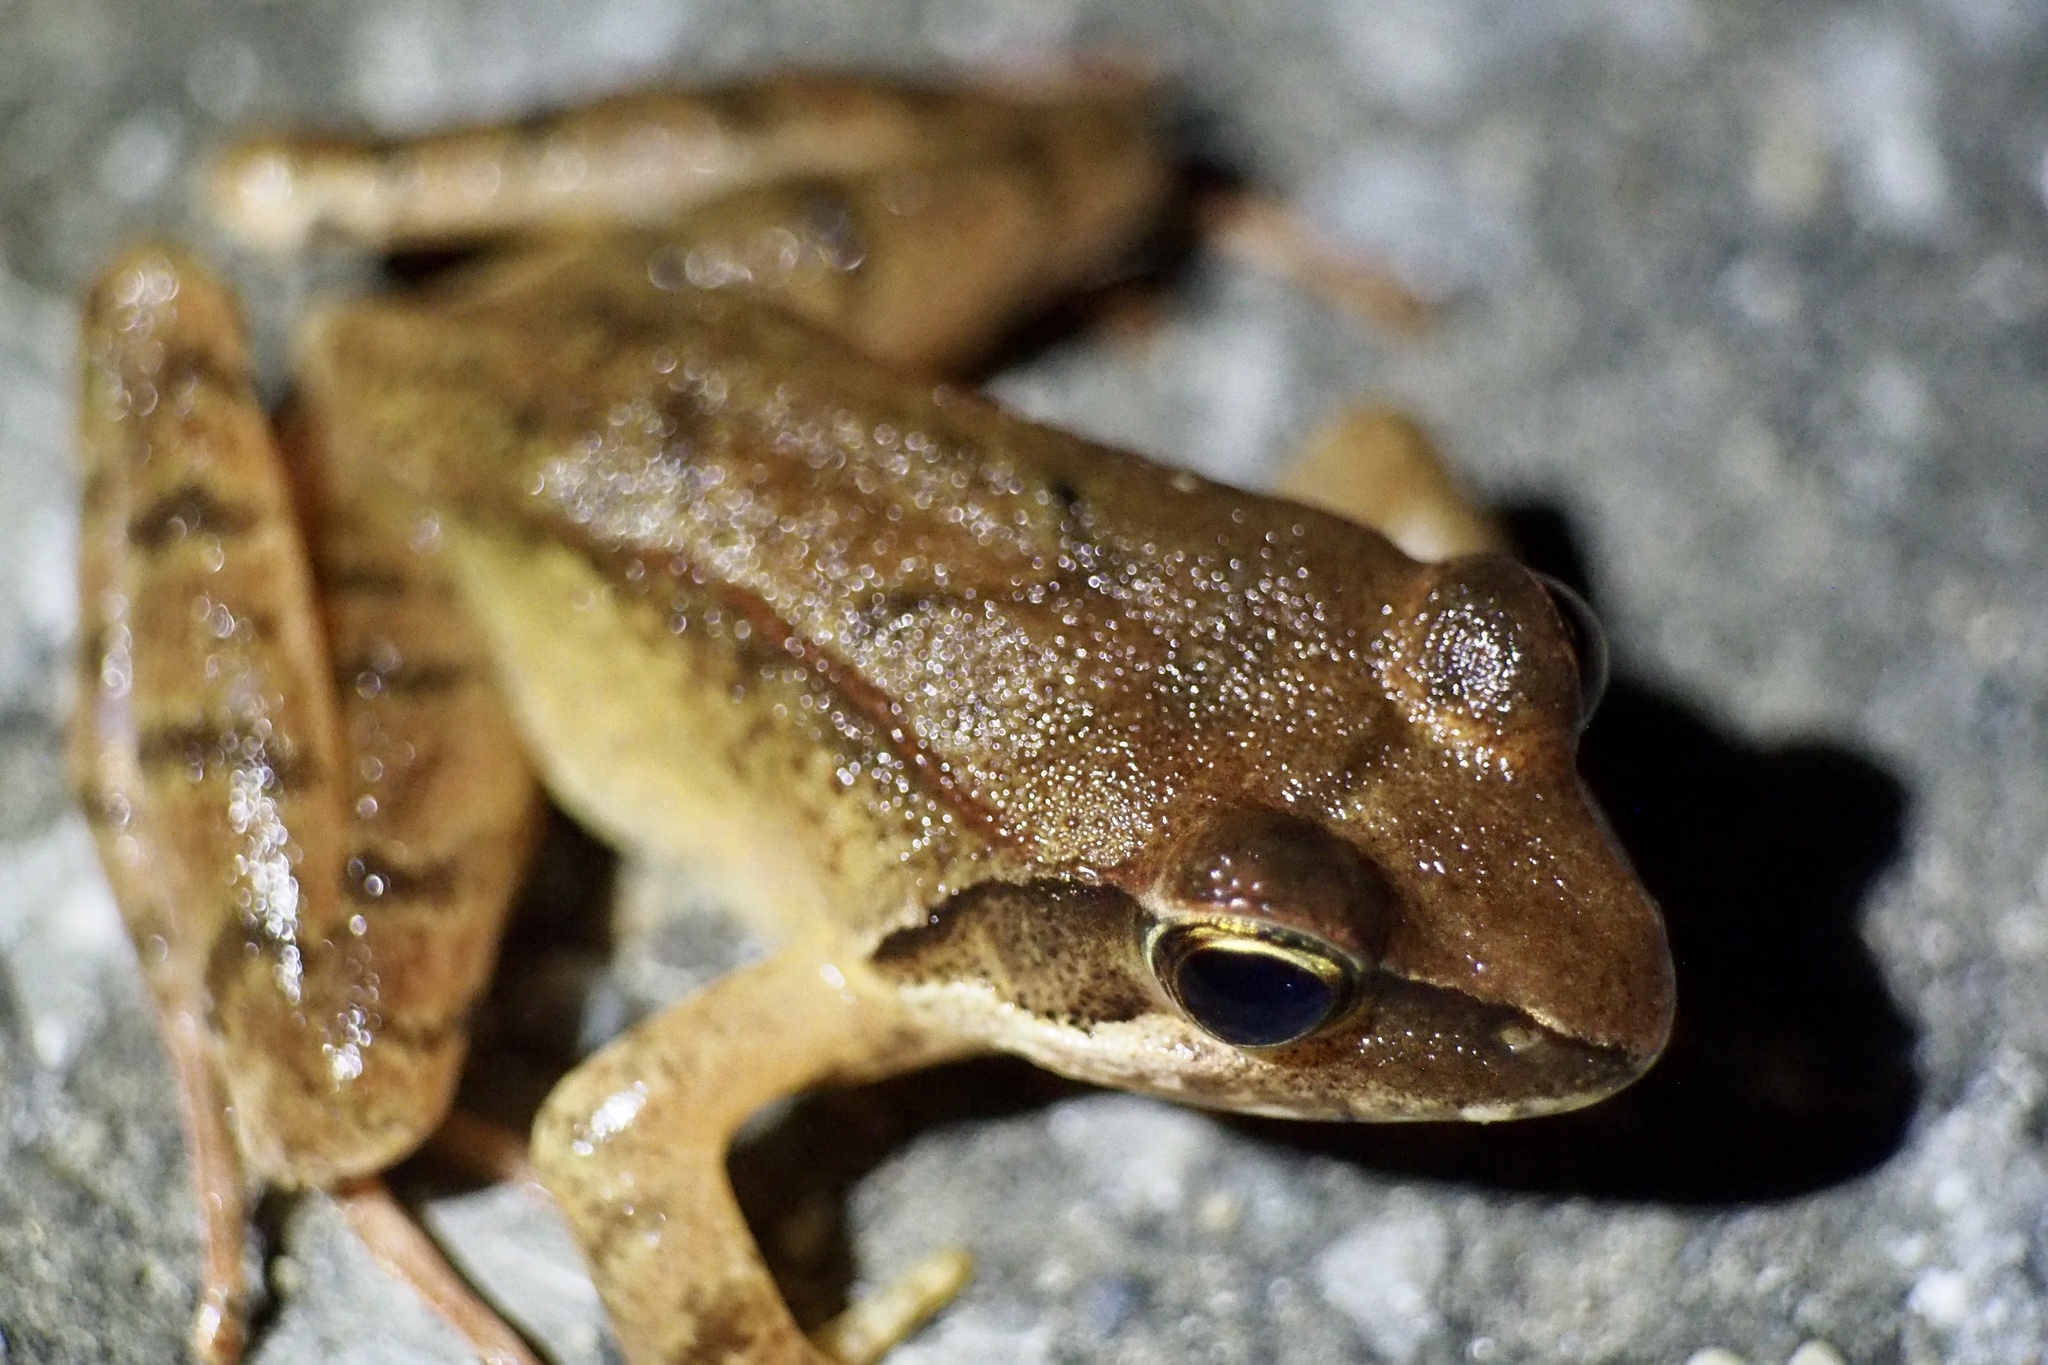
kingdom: Animalia
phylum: Chordata
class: Amphibia
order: Anura
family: Ranidae
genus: Rana
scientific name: Rana ornativentris
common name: Montane brown frog
